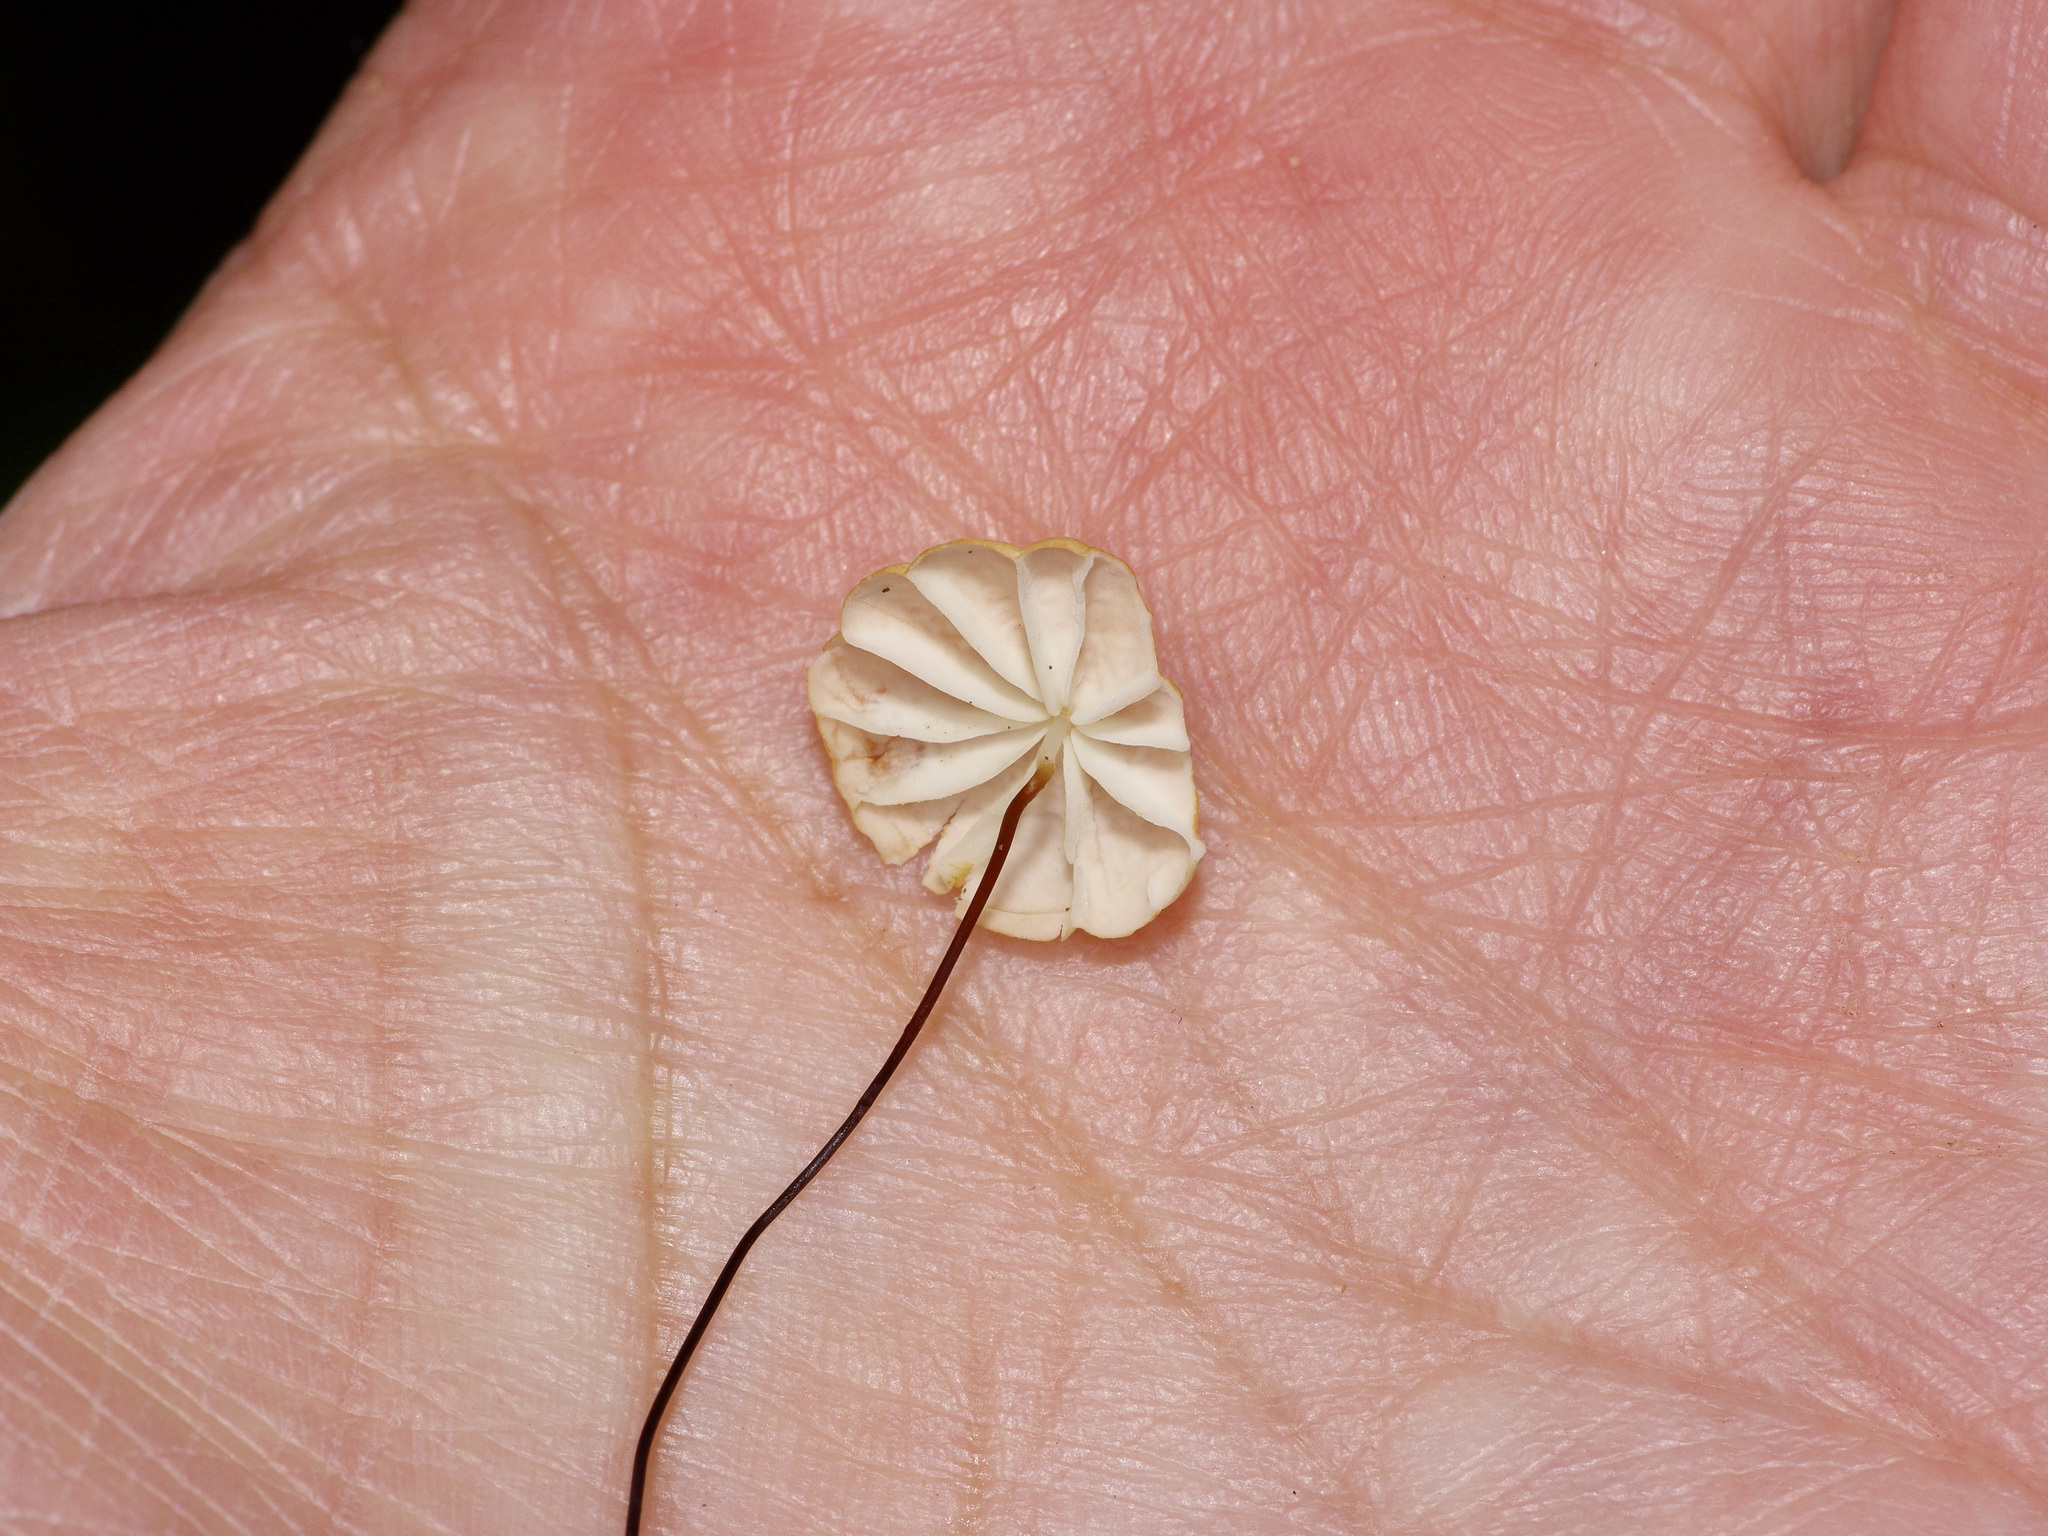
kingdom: Fungi
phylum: Basidiomycota
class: Agaricomycetes
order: Agaricales
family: Marasmiaceae
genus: Marasmius
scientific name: Marasmius siccus
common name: Orange pinwheel
